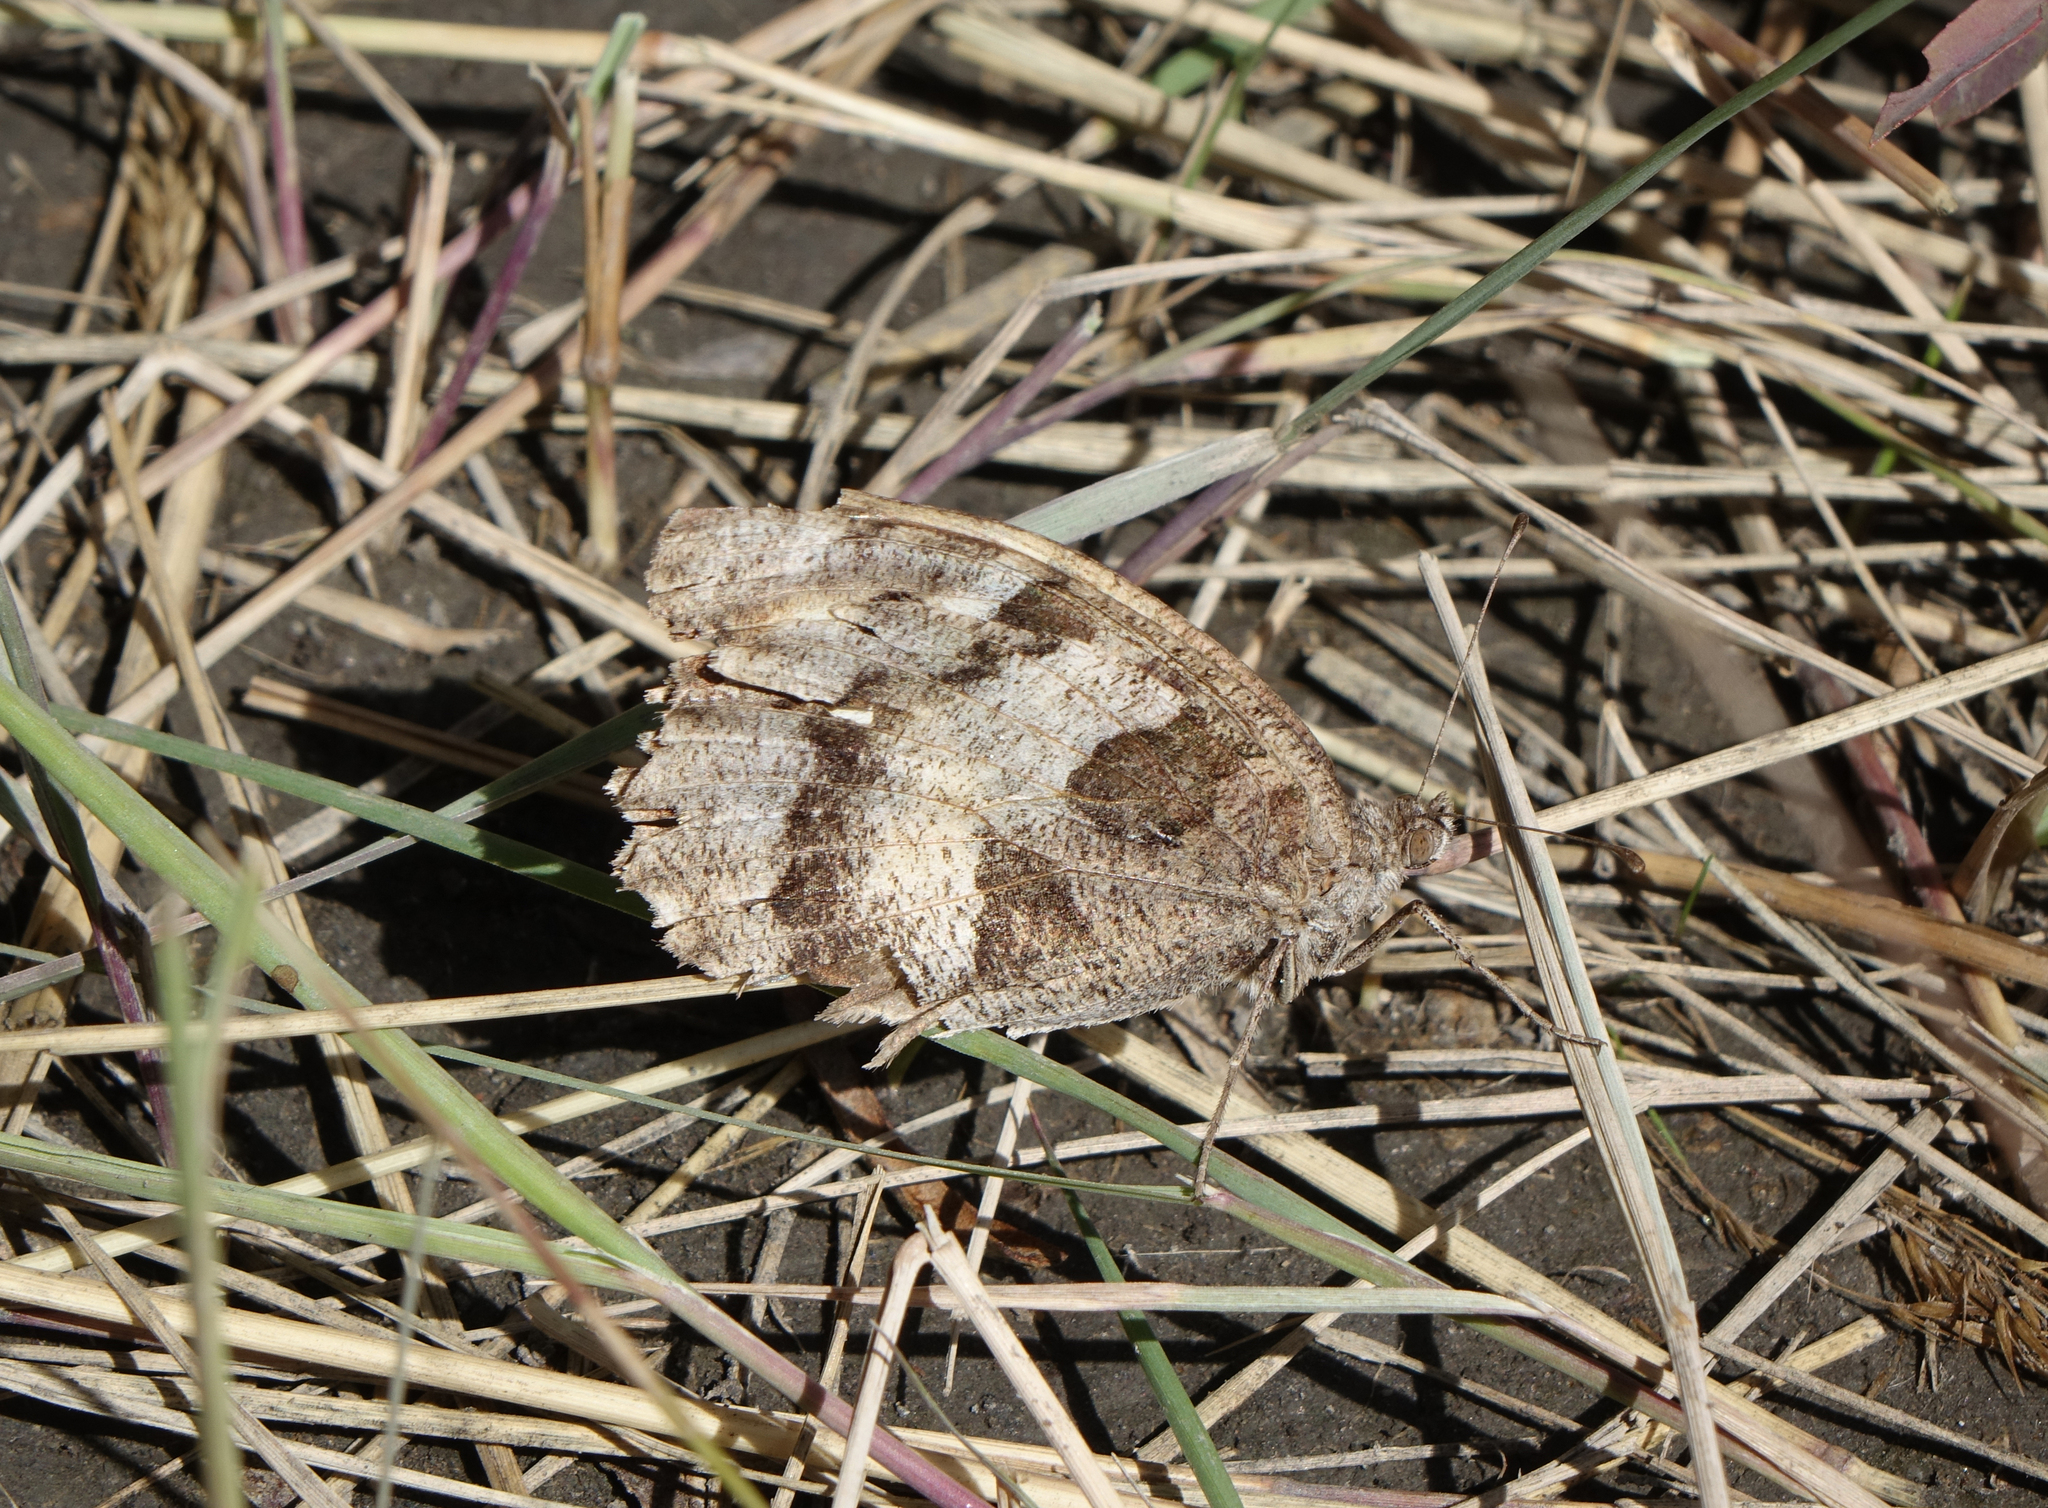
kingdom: Animalia
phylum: Arthropoda
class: Insecta
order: Lepidoptera
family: Nymphalidae
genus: Satyrus
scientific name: Satyrus briseis
